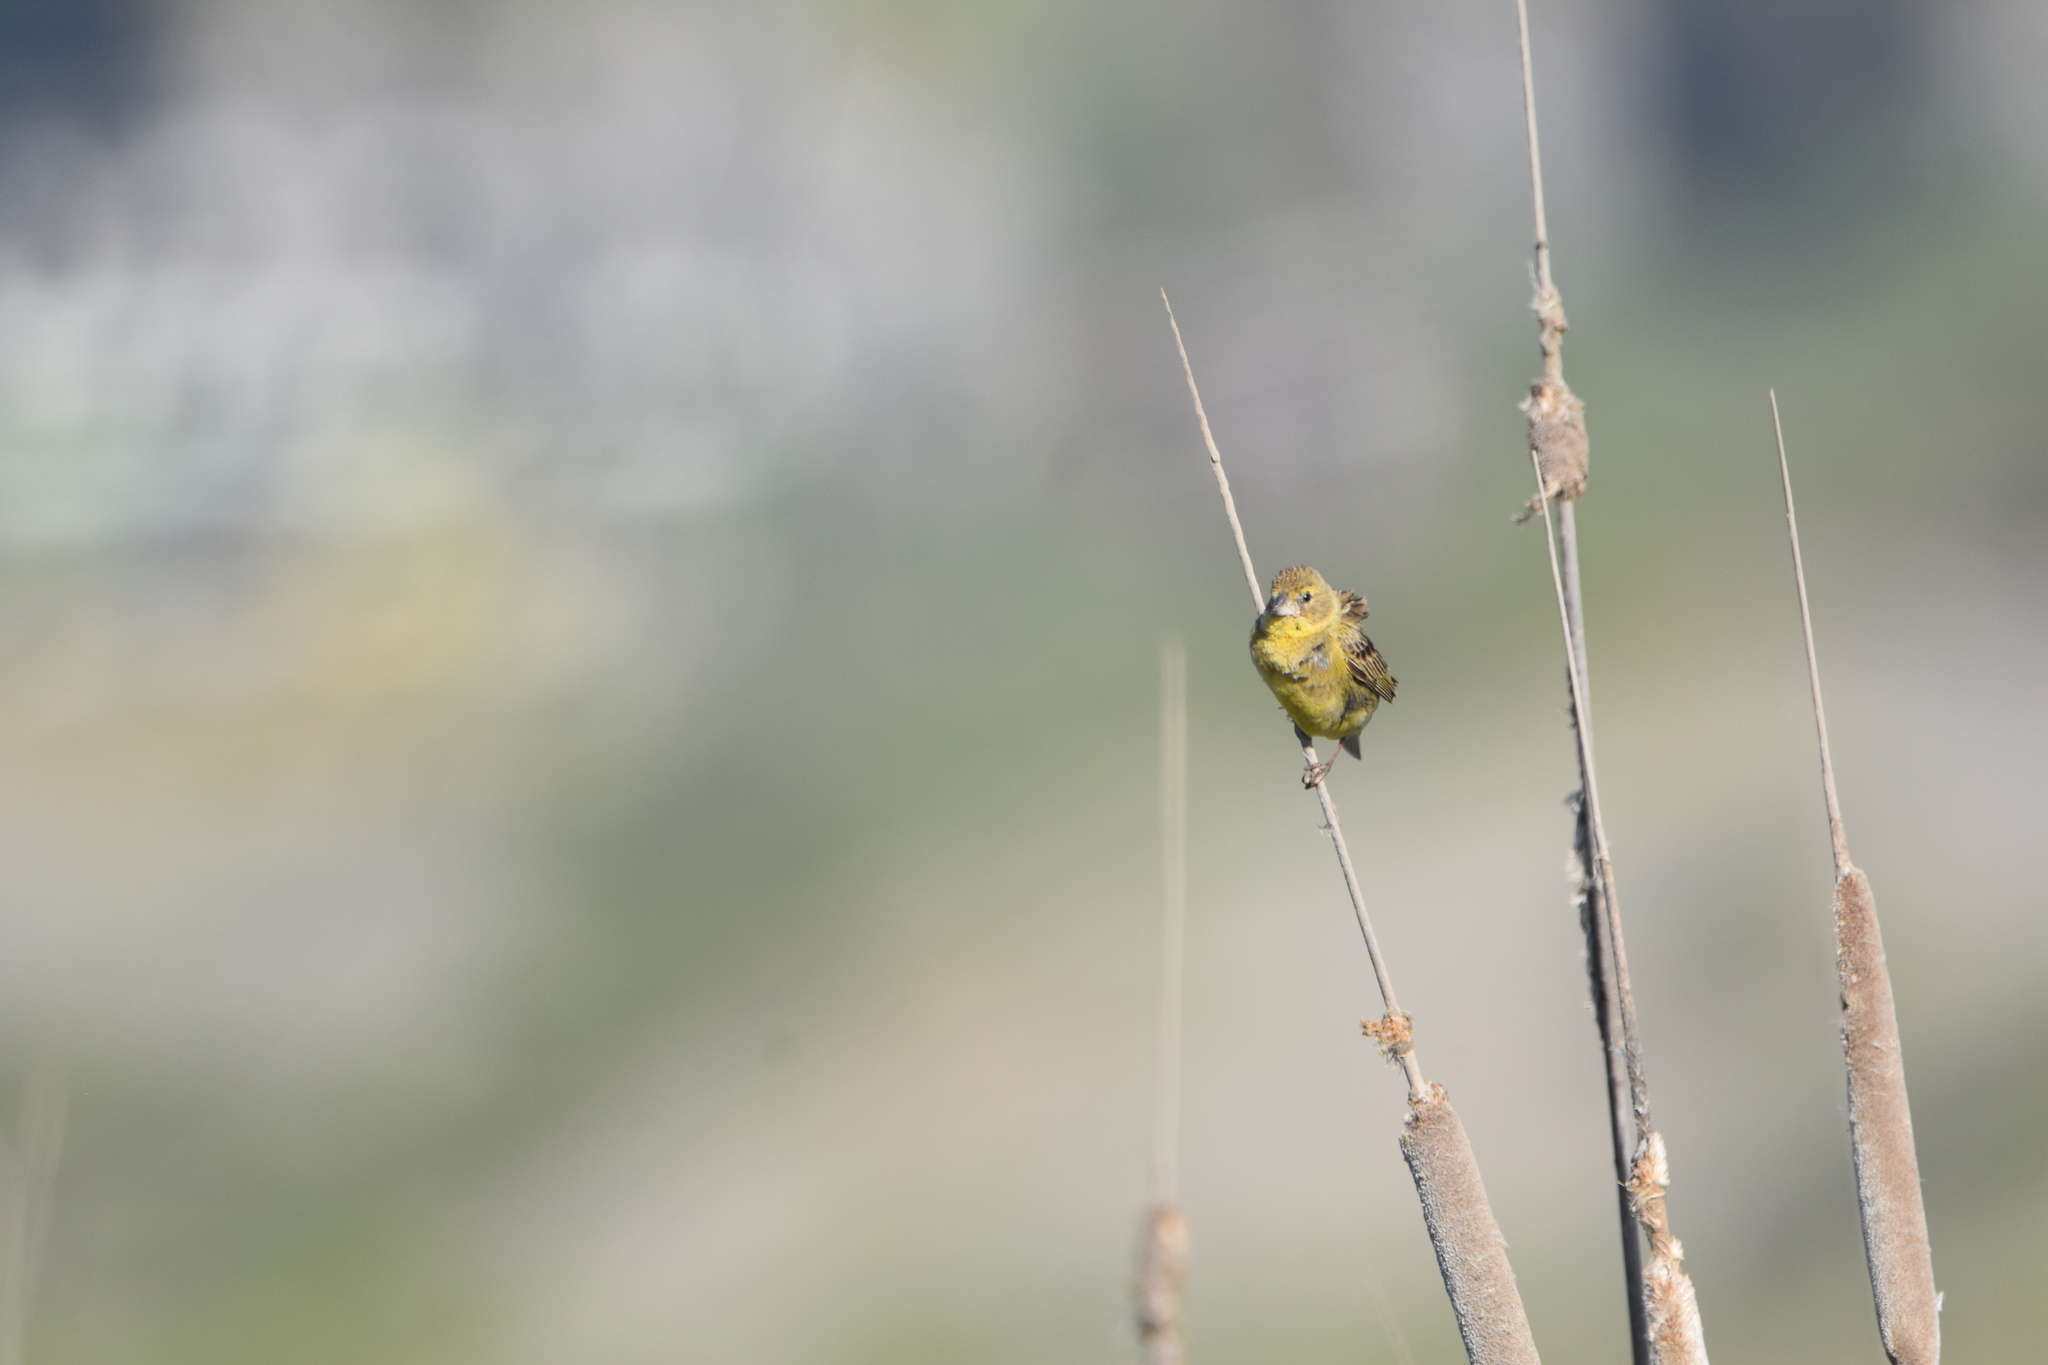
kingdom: Animalia
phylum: Chordata
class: Aves
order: Passeriformes
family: Thraupidae
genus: Sicalis
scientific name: Sicalis luteola
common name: Grassland yellow-finch
